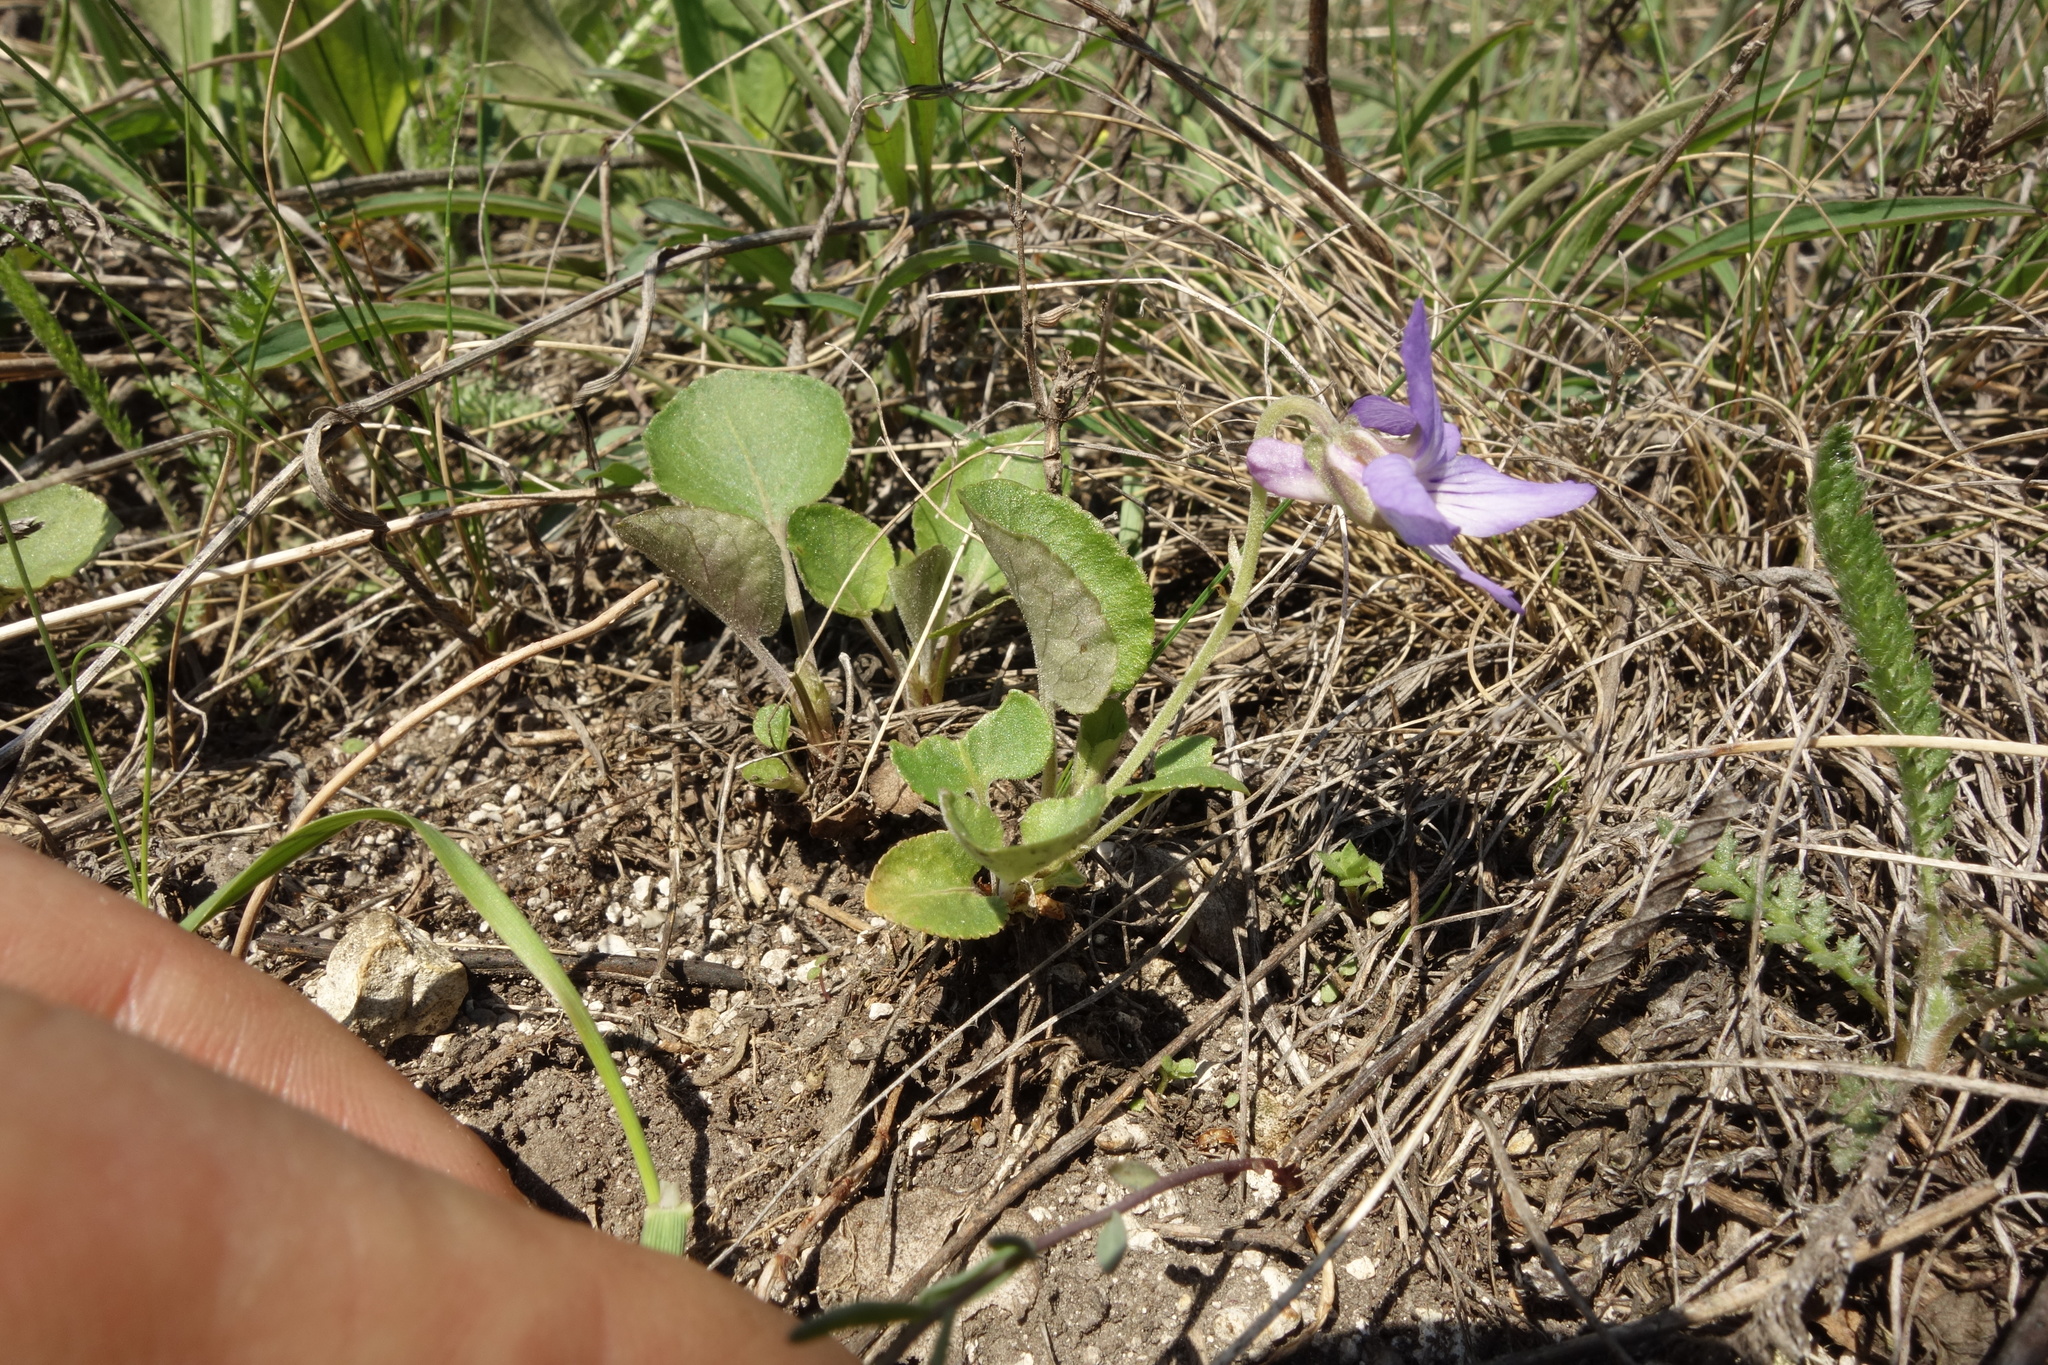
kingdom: Plantae
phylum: Tracheophyta
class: Magnoliopsida
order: Malpighiales
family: Violaceae
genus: Viola
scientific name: Viola rupestris
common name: Teesdale violet
